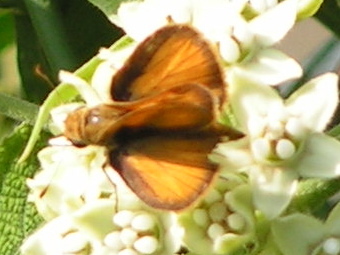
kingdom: Animalia
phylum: Arthropoda
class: Insecta
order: Lepidoptera
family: Hesperiidae
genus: Copaeodes
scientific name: Copaeodes minima
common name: Southern skipperling
